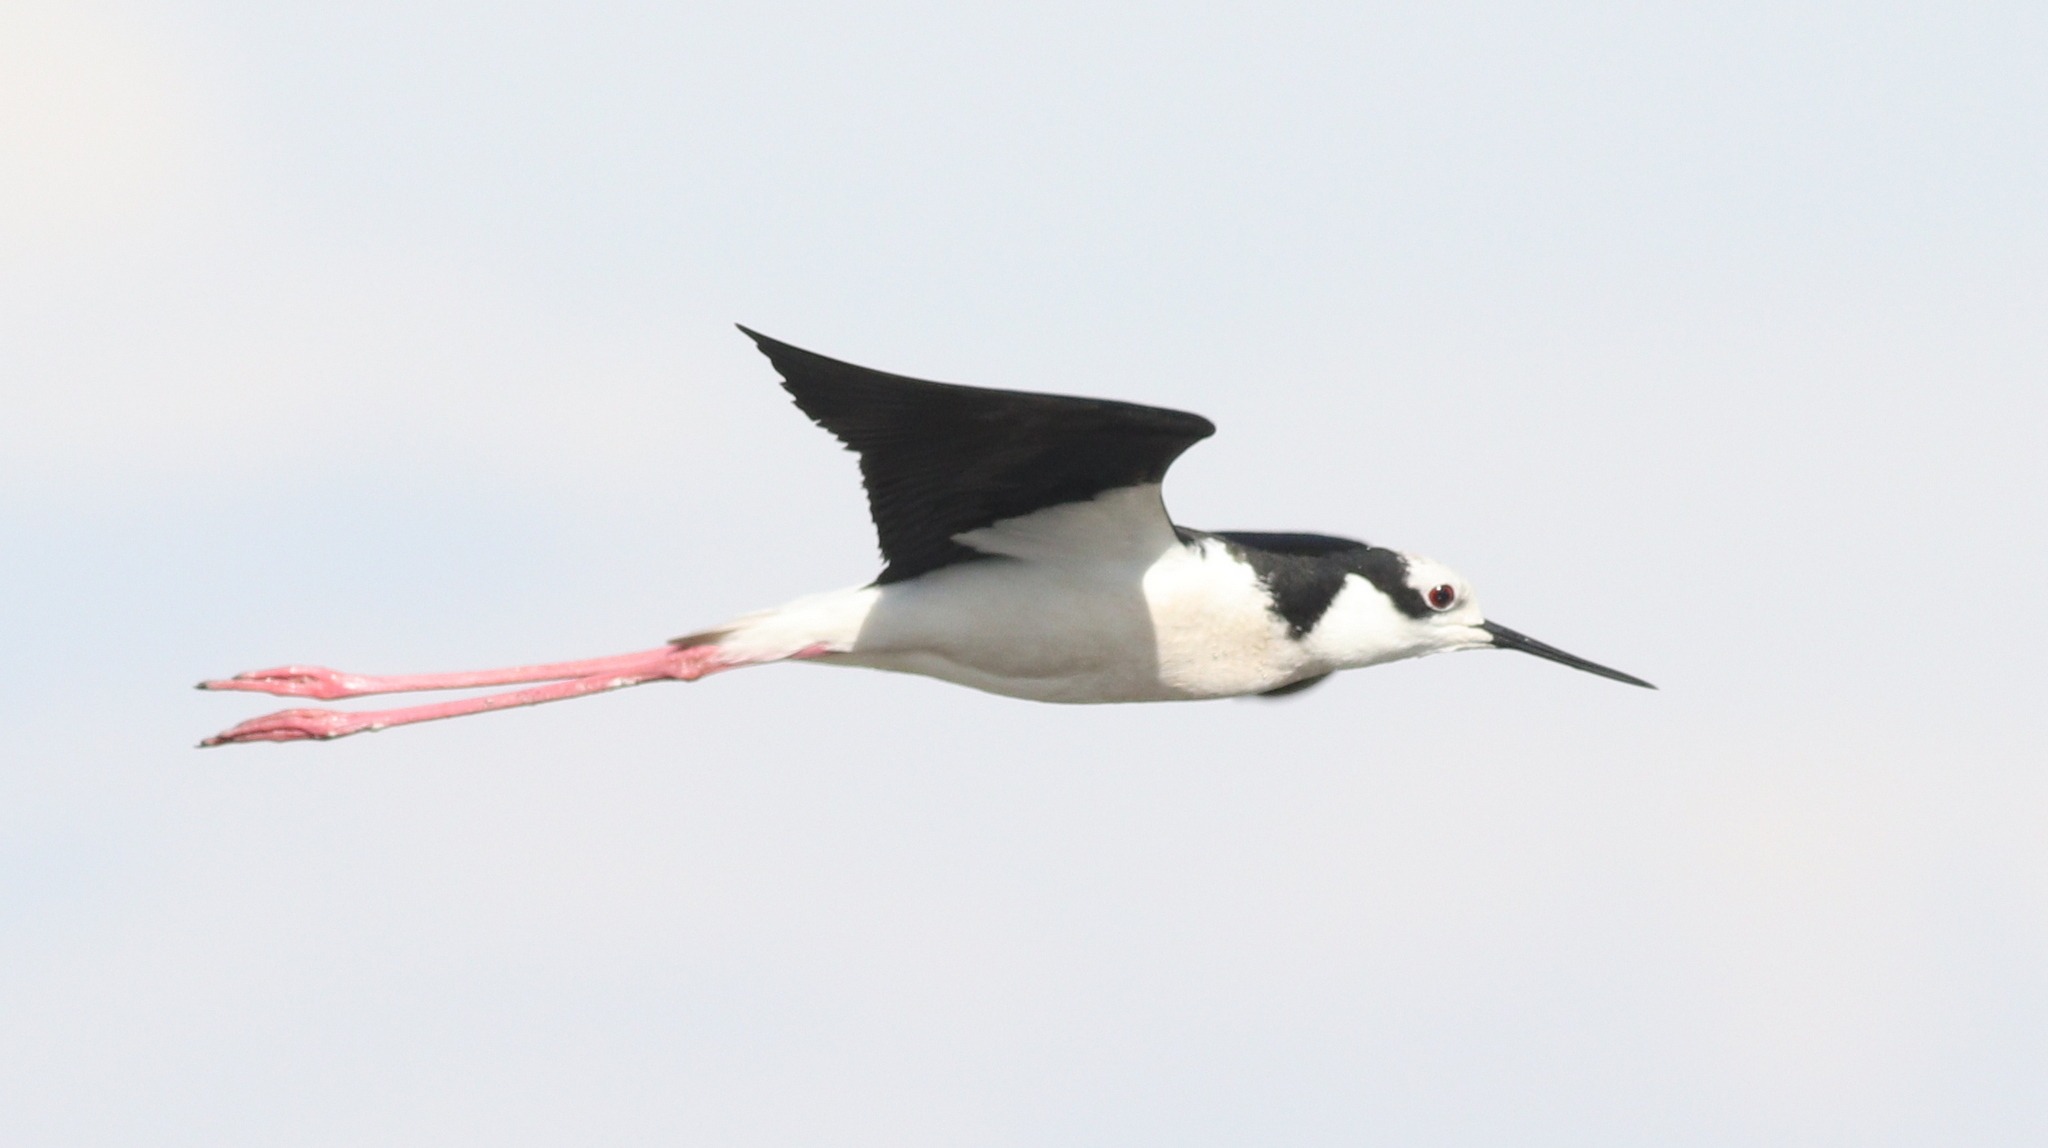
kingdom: Animalia
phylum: Chordata
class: Aves
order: Charadriiformes
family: Recurvirostridae
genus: Himantopus
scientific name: Himantopus mexicanus
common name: Black-necked stilt
